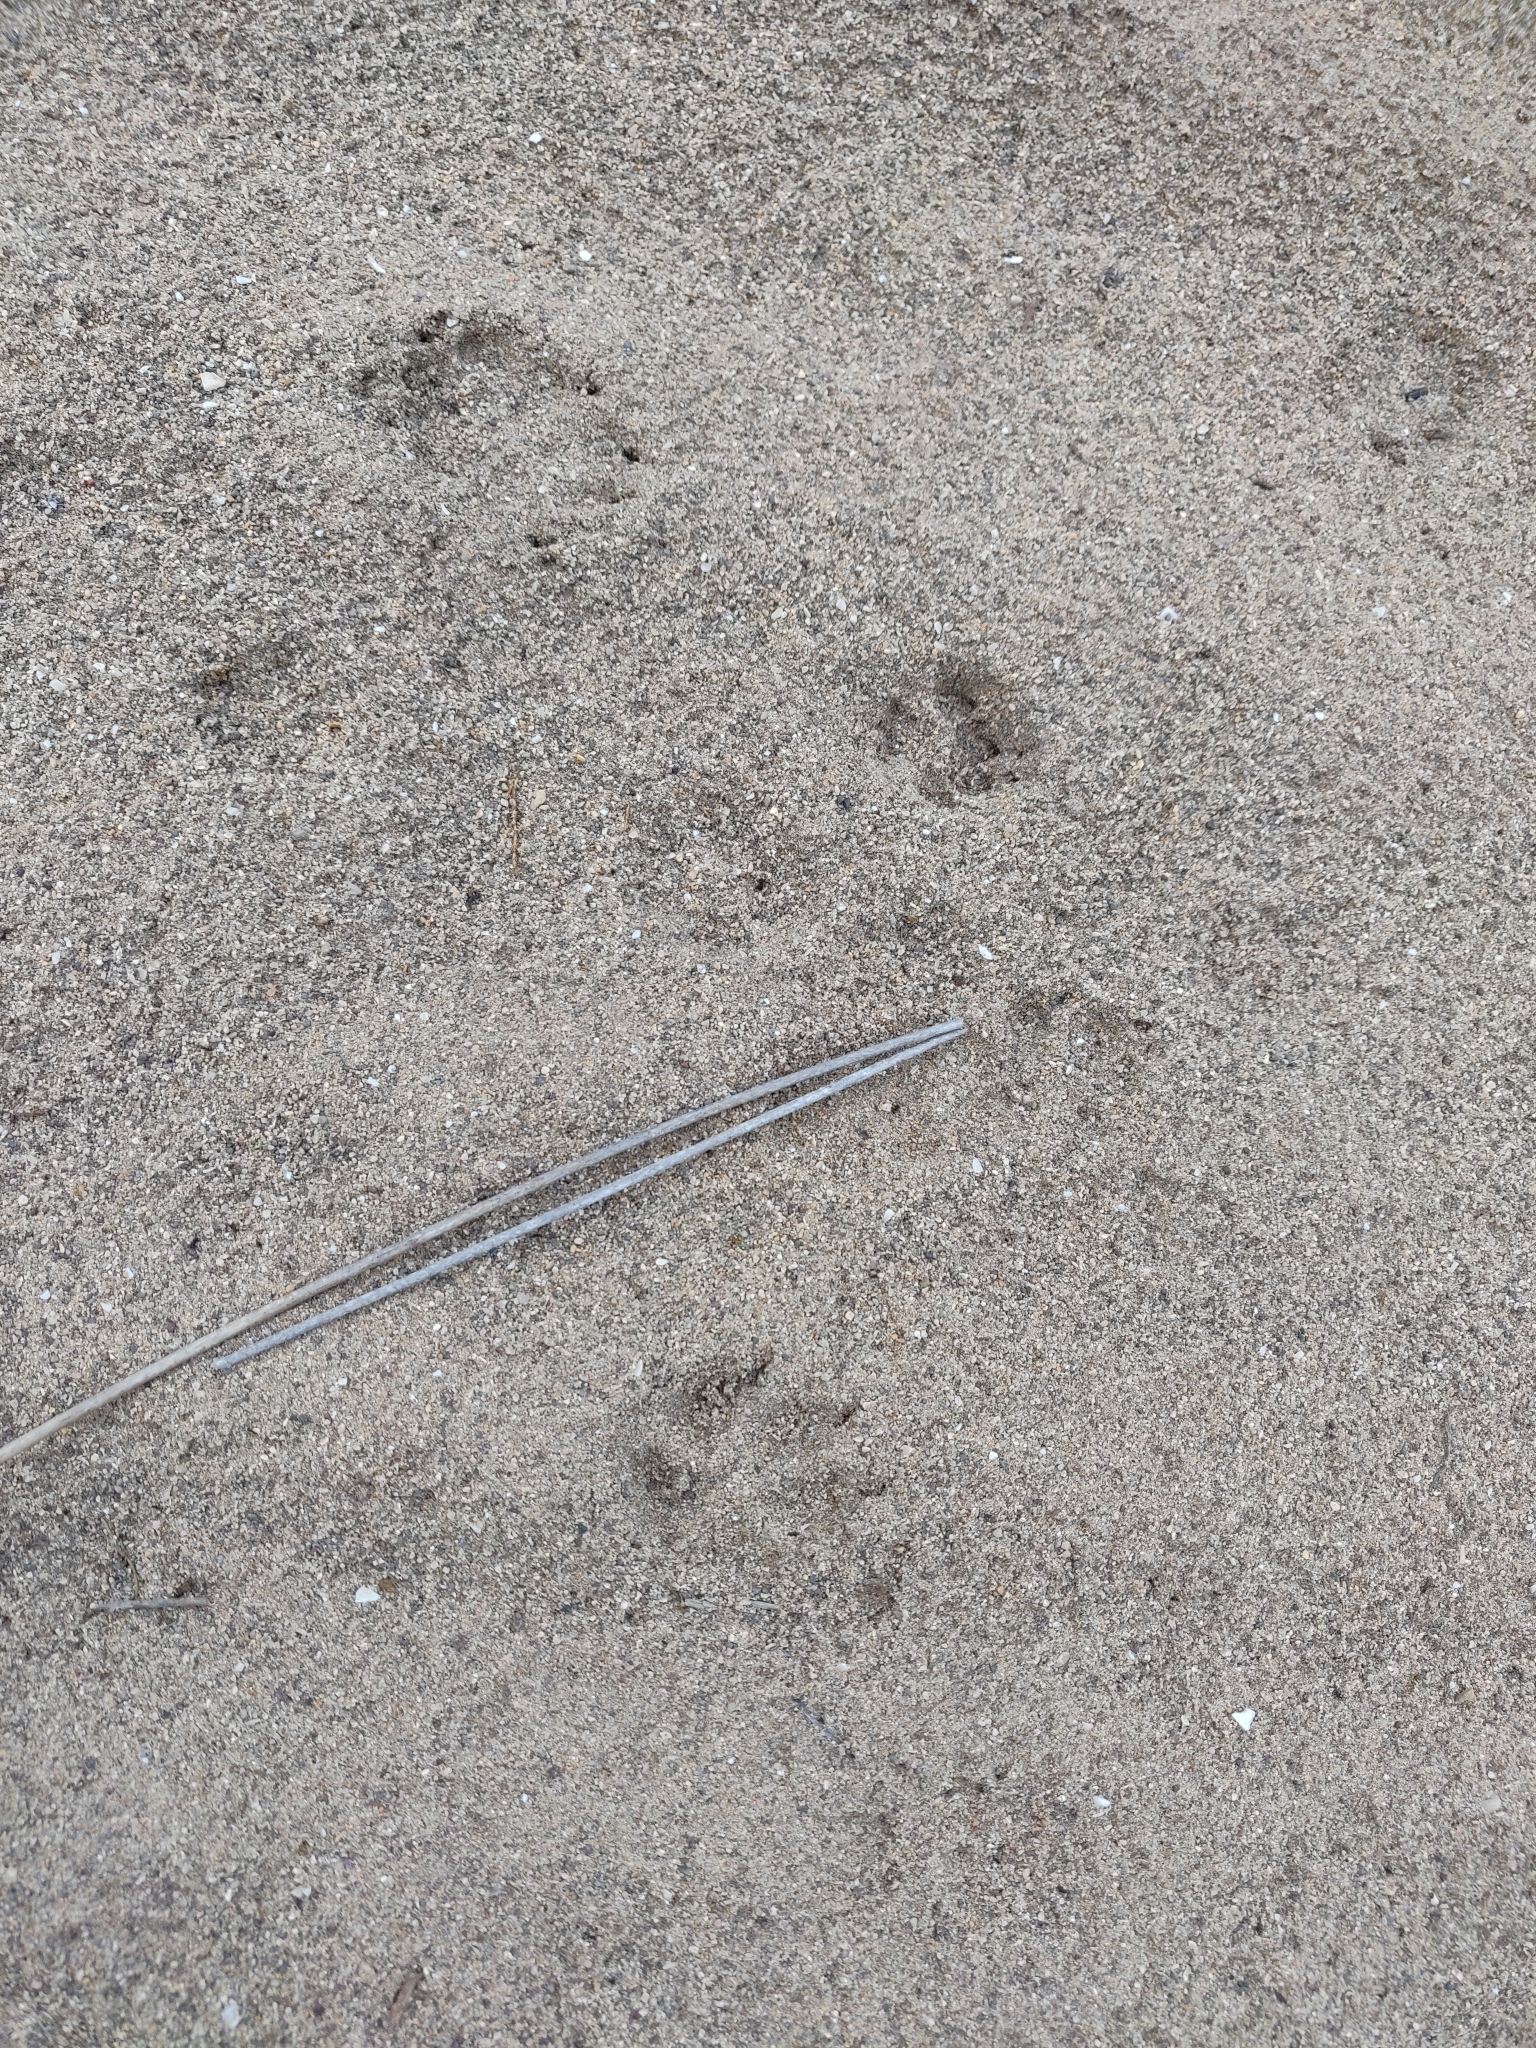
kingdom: Animalia
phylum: Chordata
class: Mammalia
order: Carnivora
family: Canidae
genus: Vulpes
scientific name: Vulpes vulpes
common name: Red fox
